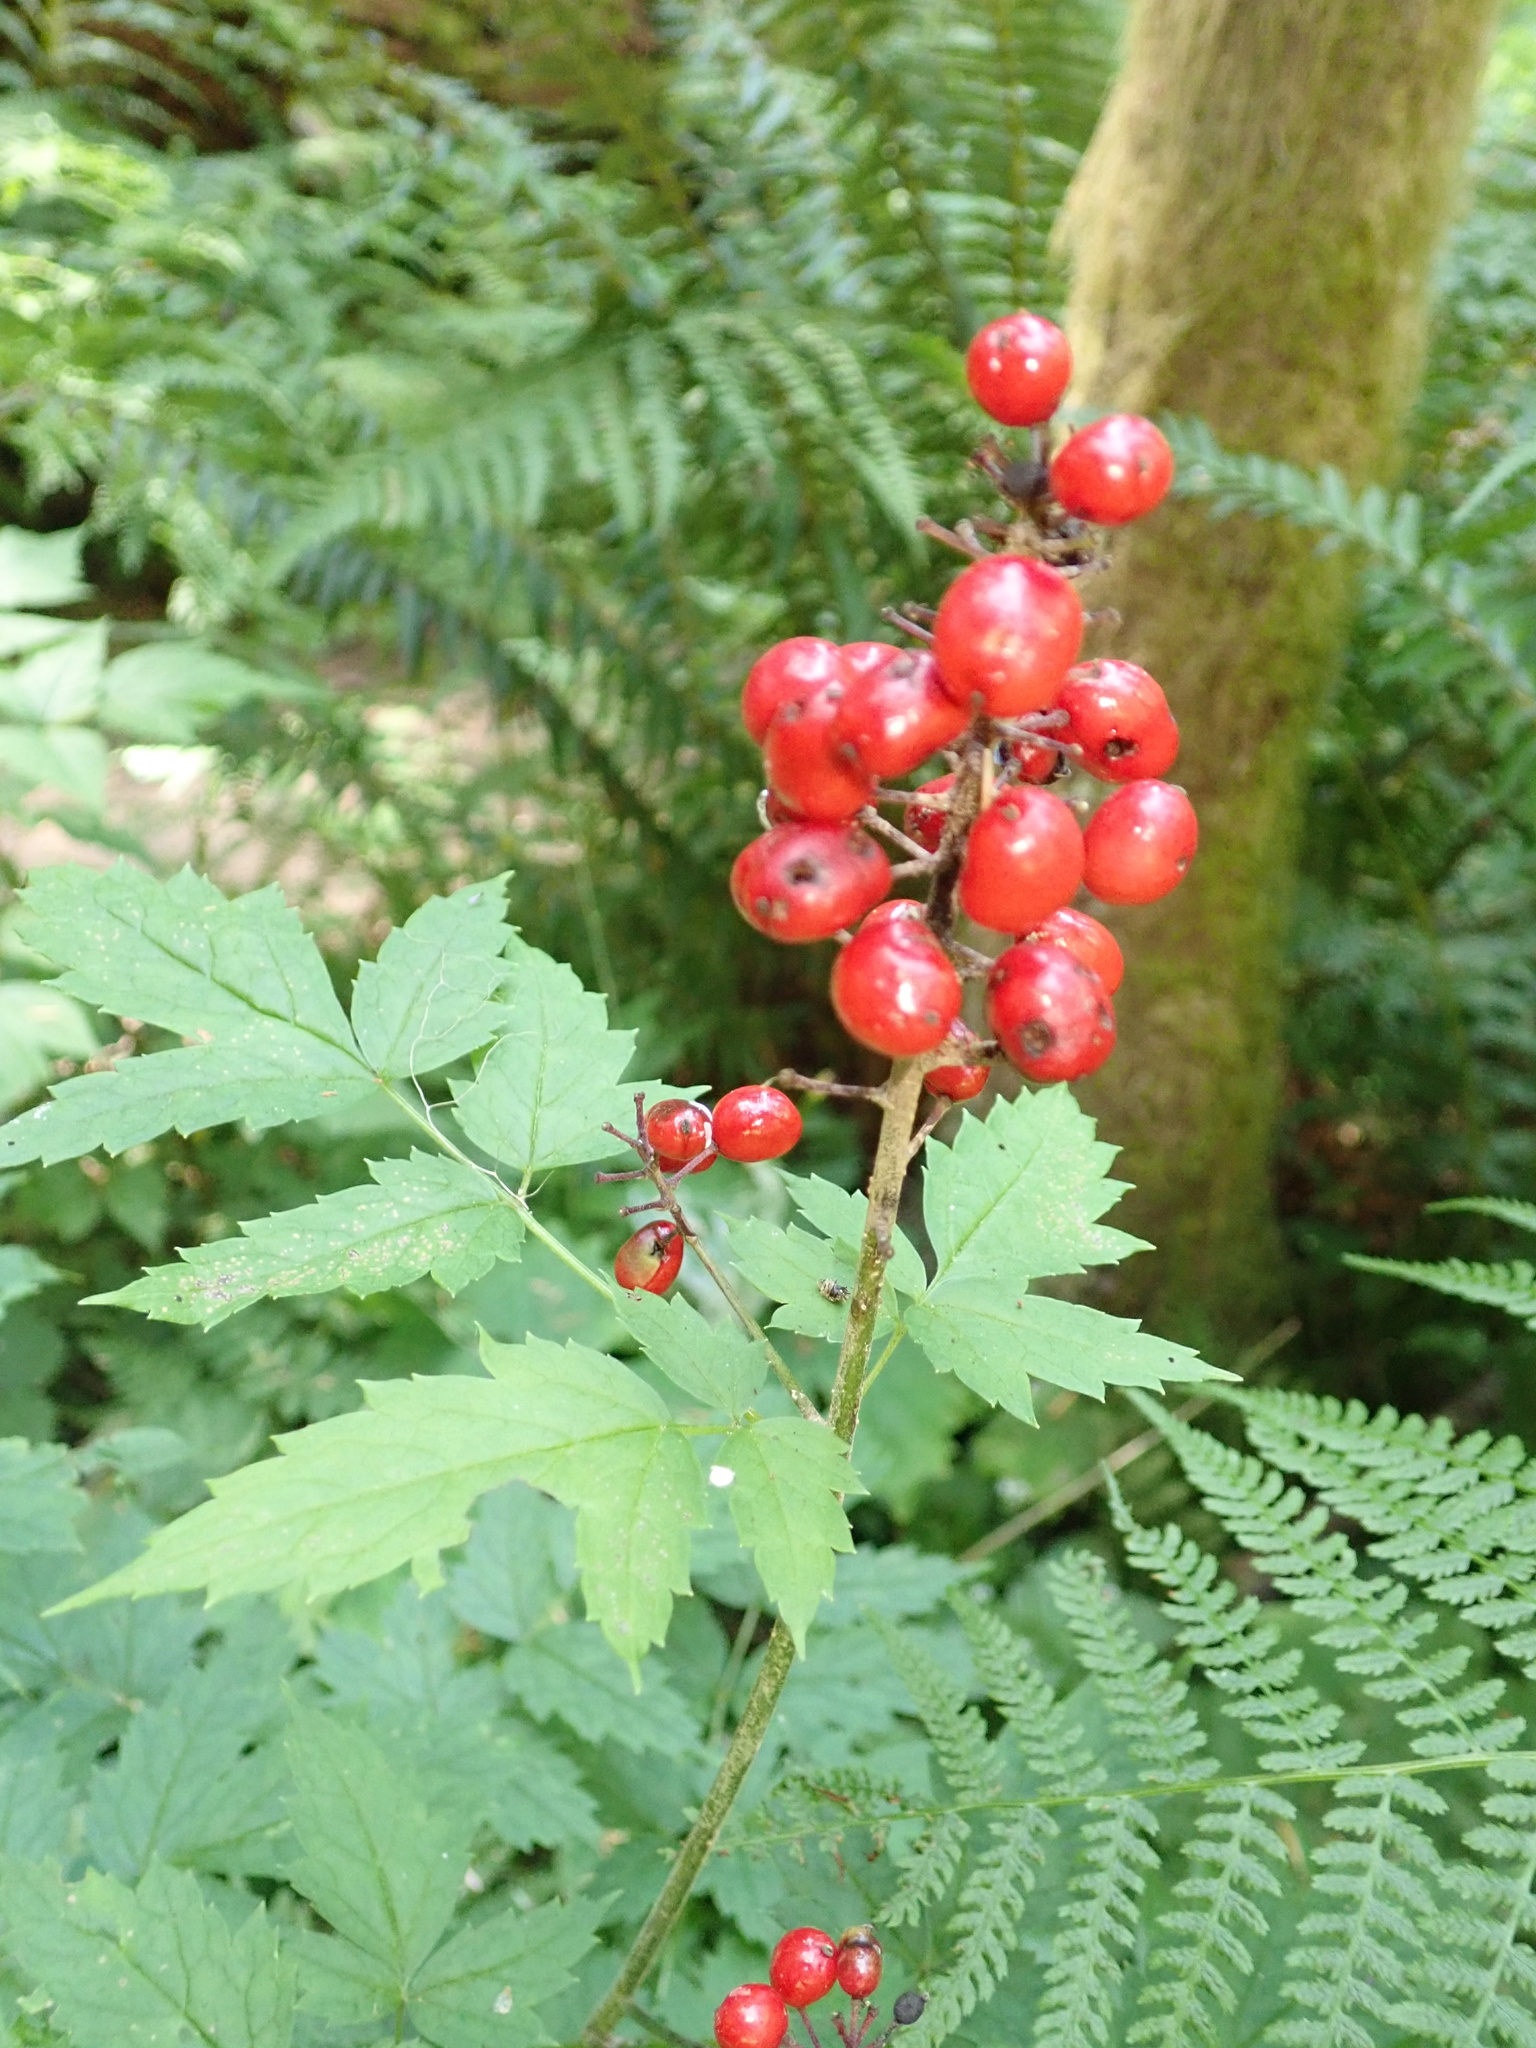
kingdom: Plantae
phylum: Tracheophyta
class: Magnoliopsida
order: Ranunculales
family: Ranunculaceae
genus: Actaea
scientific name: Actaea rubra
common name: Red baneberry
